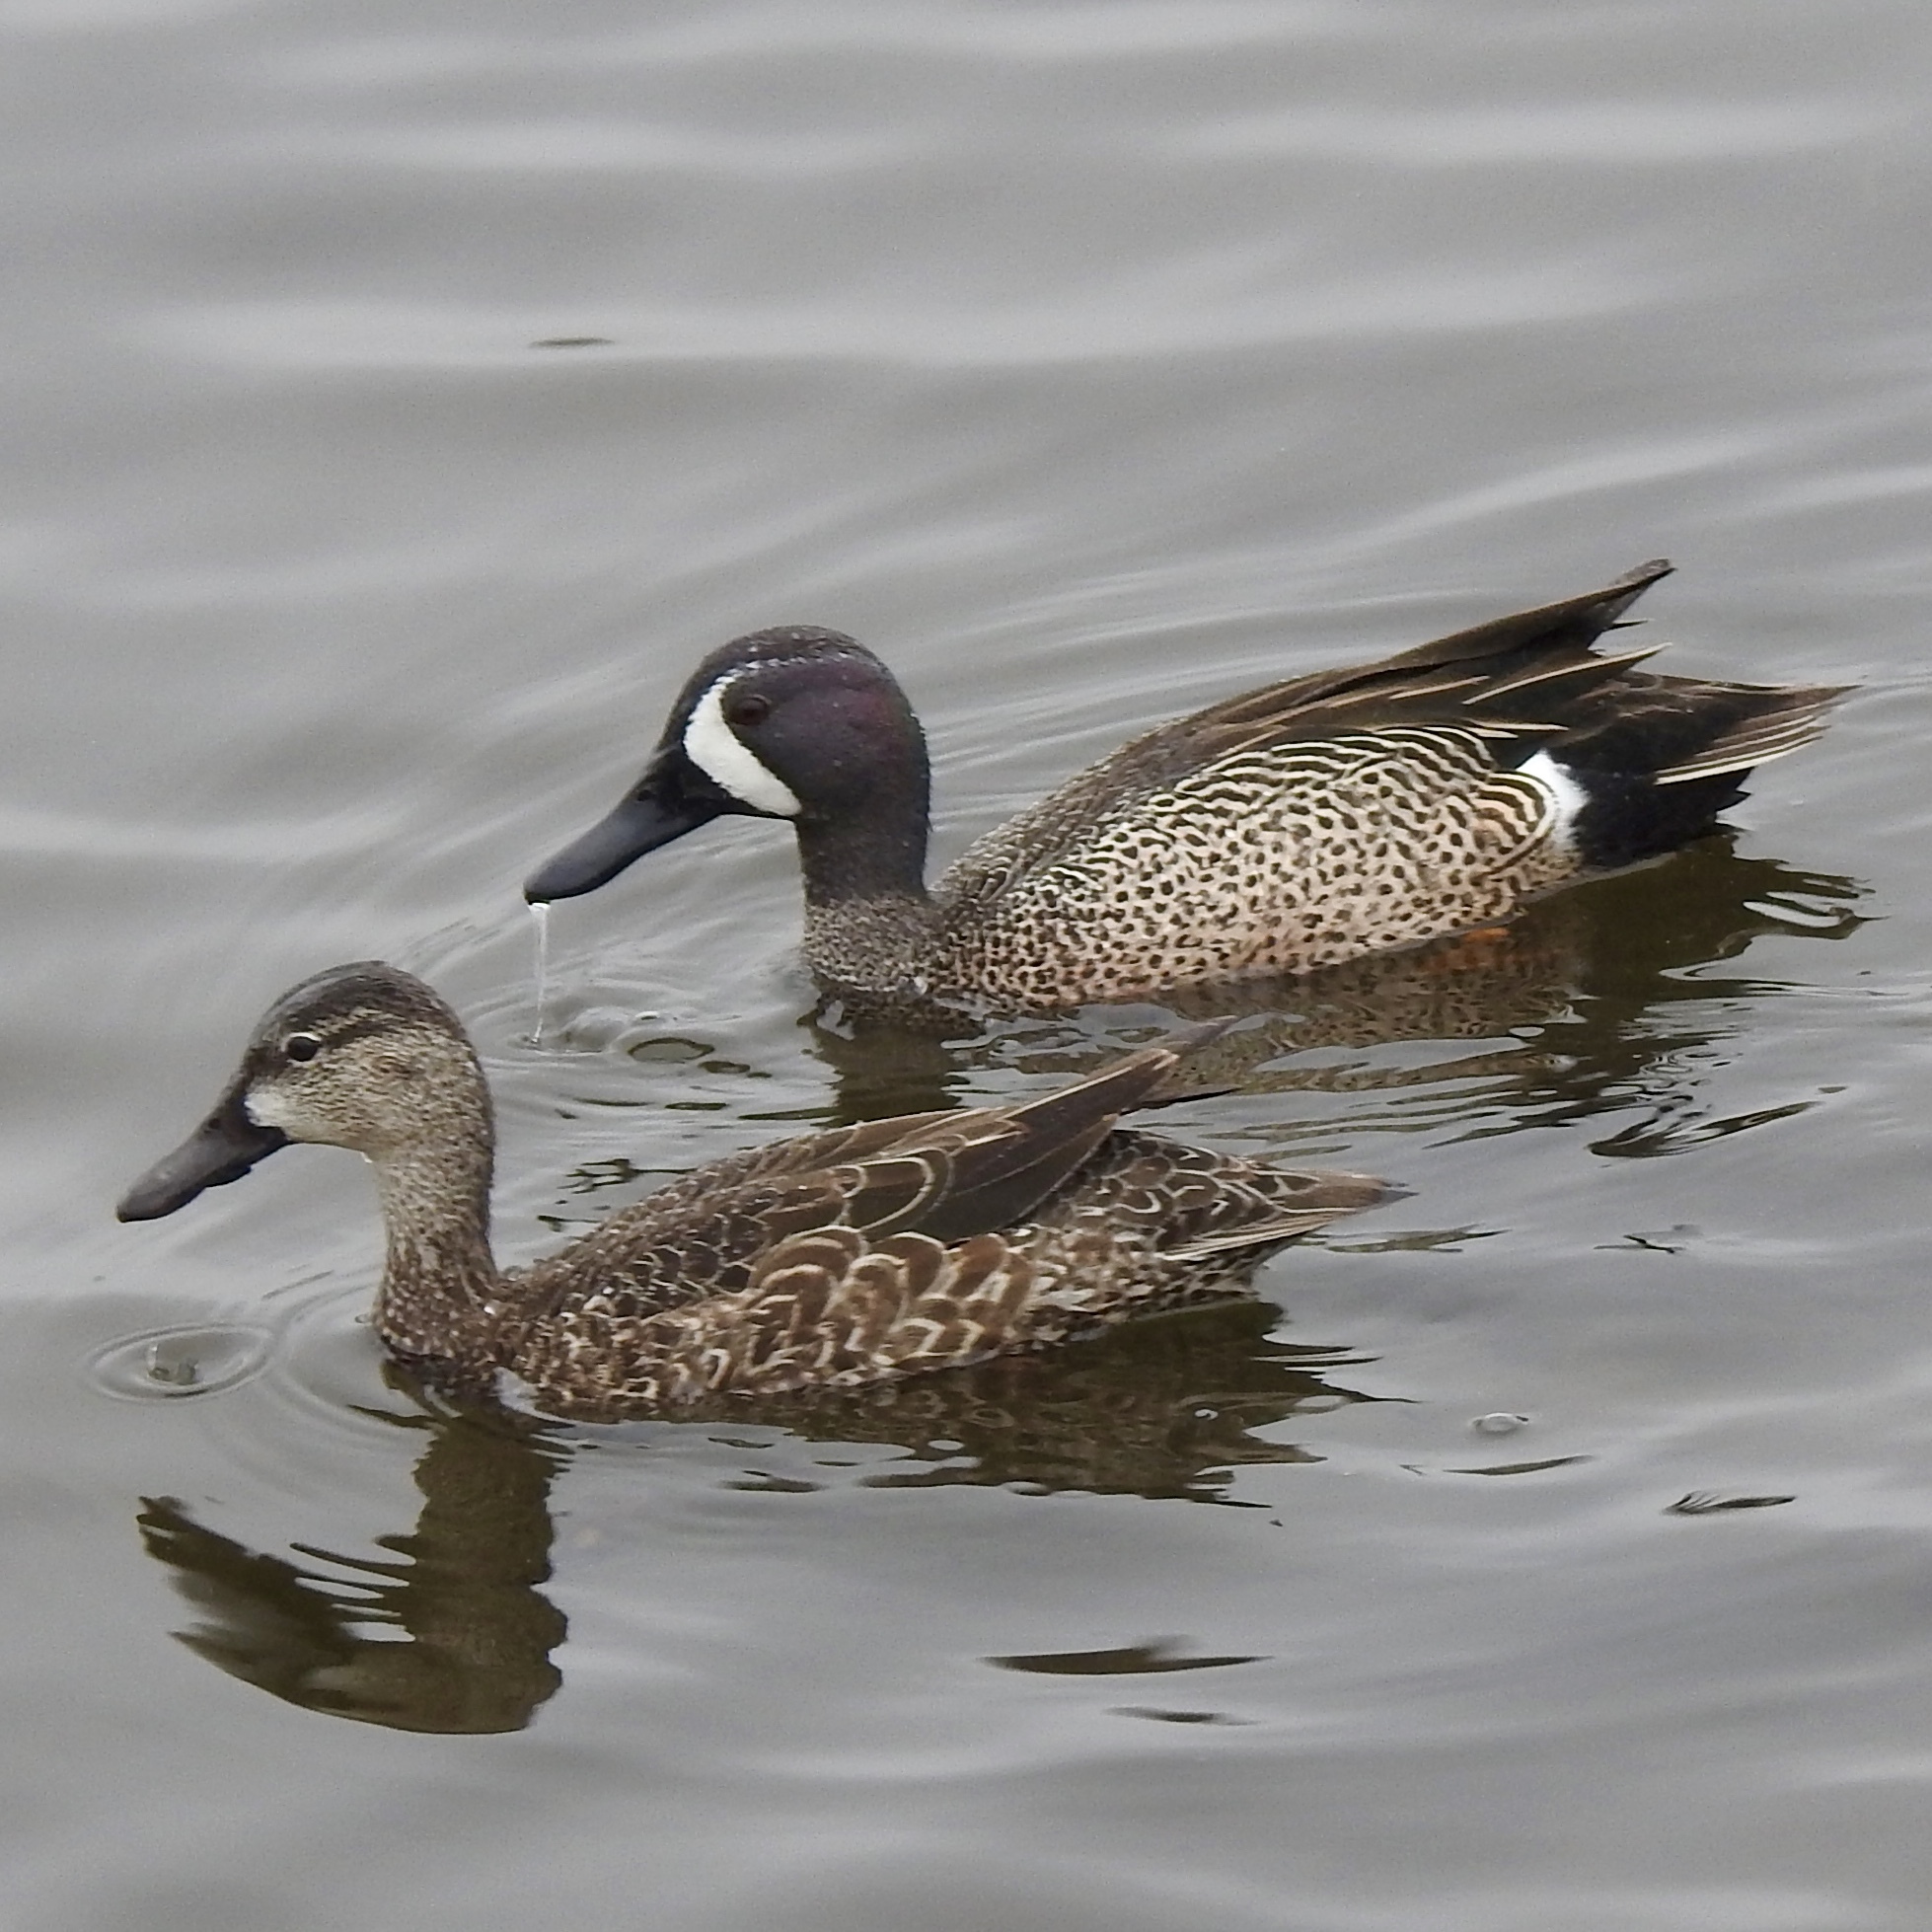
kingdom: Animalia
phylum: Chordata
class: Aves
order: Anseriformes
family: Anatidae
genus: Spatula
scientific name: Spatula discors
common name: Blue-winged teal
